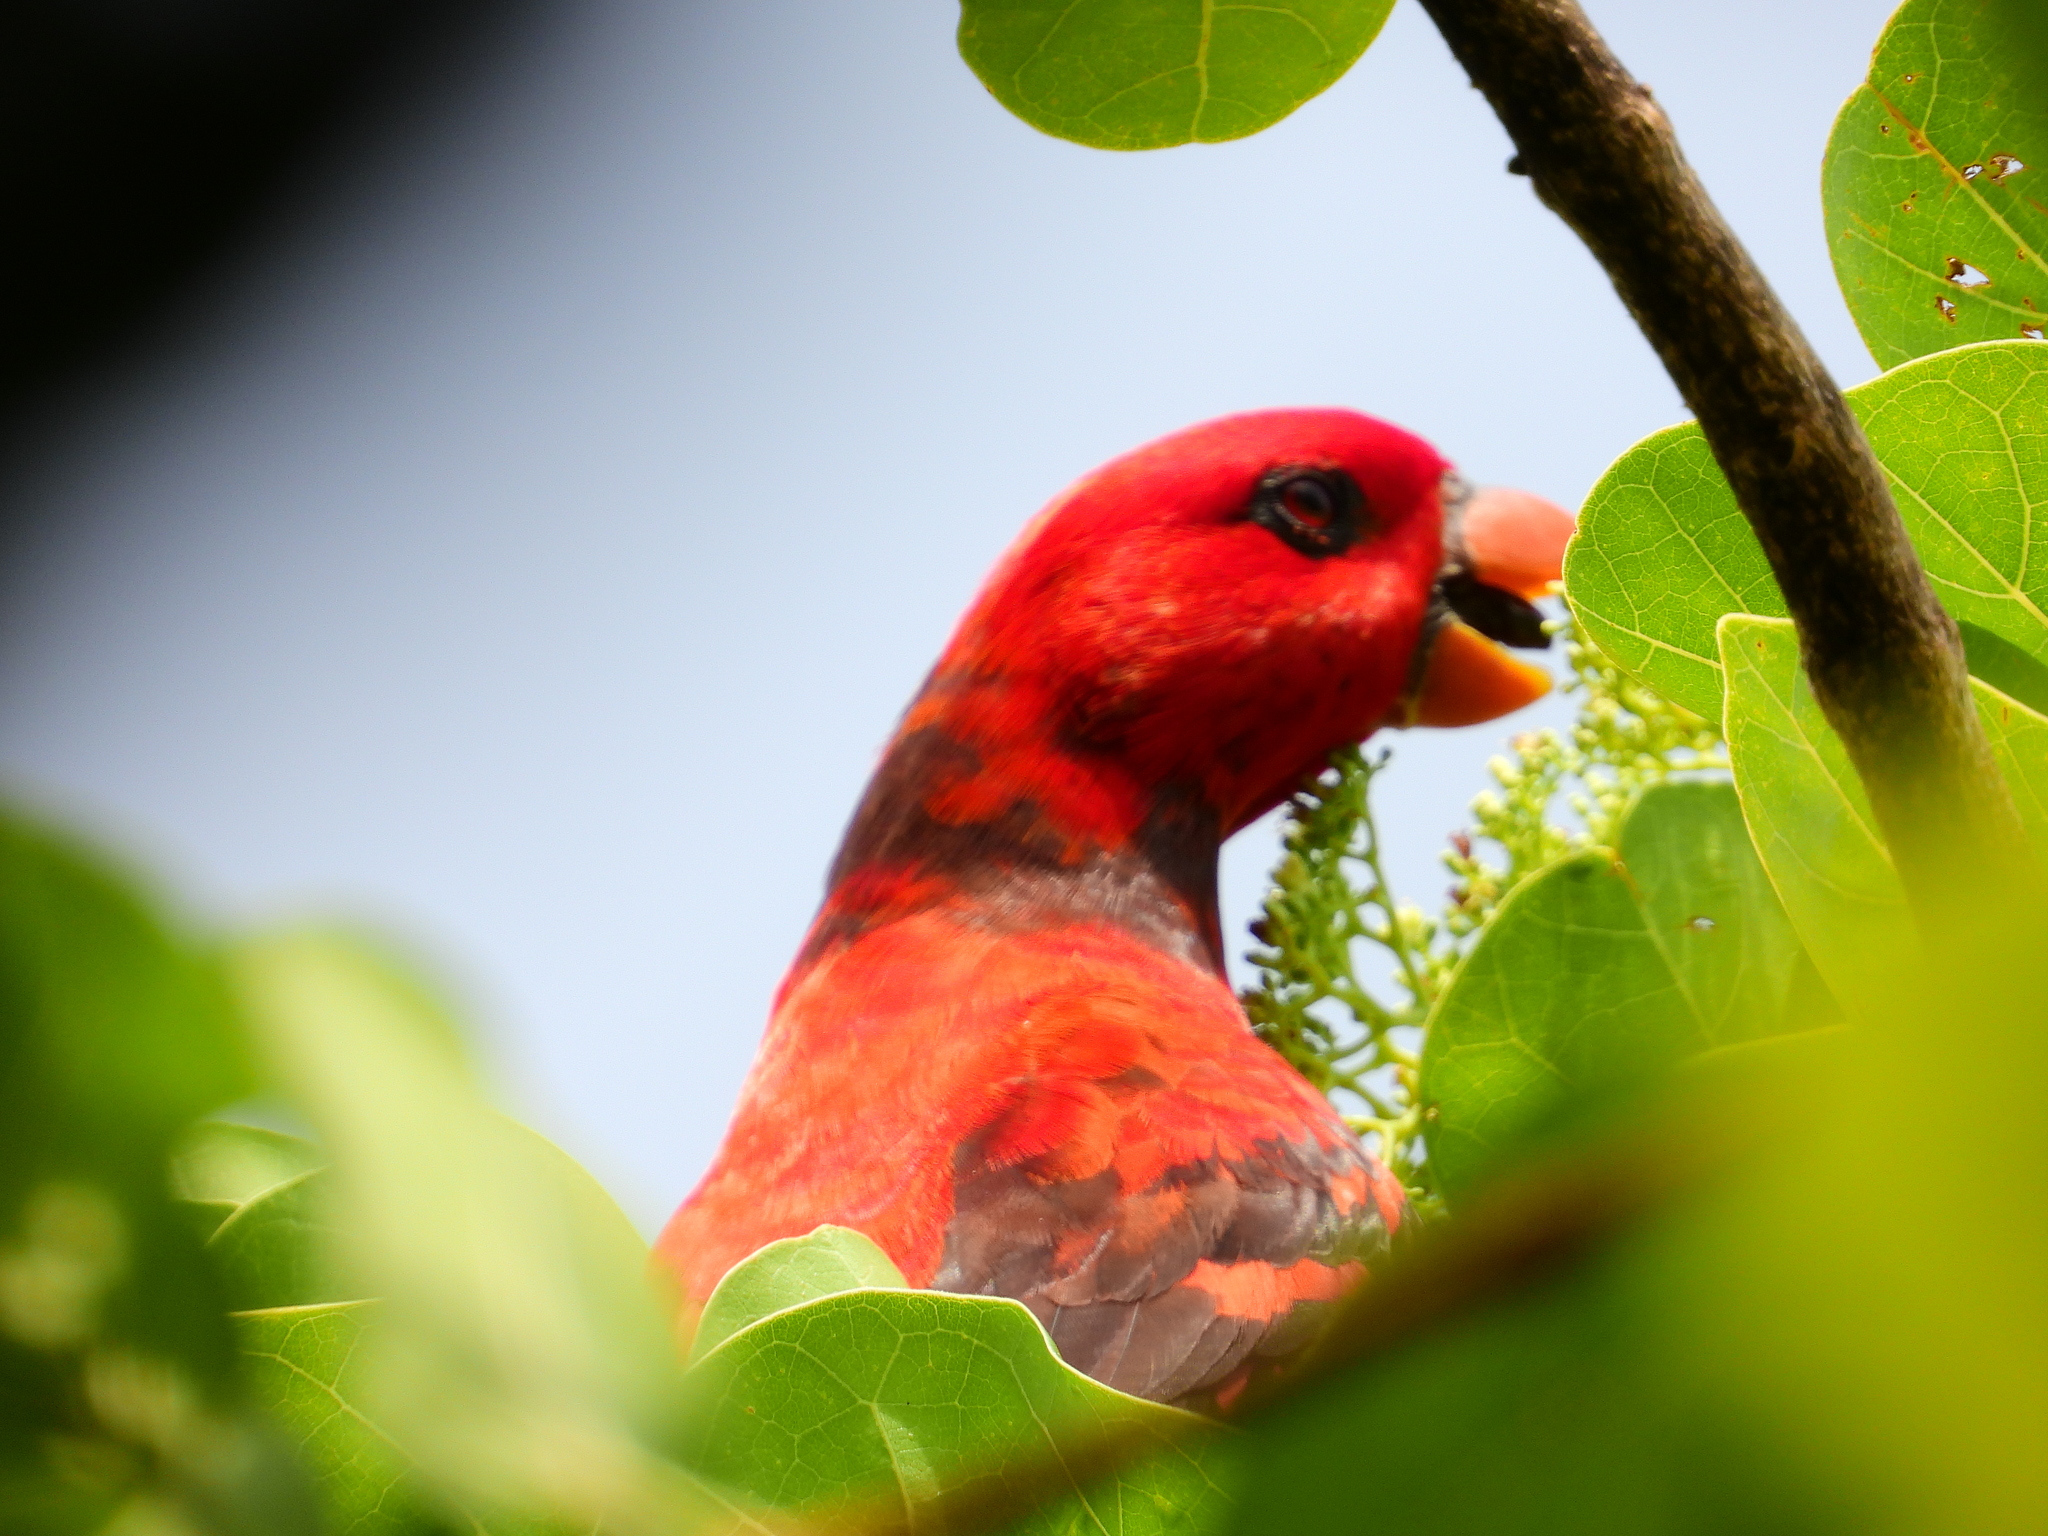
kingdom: Animalia
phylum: Chordata
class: Aves
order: Psittaciformes
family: Psittacidae
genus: Eos
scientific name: Eos squamata
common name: Violet-necked lory
